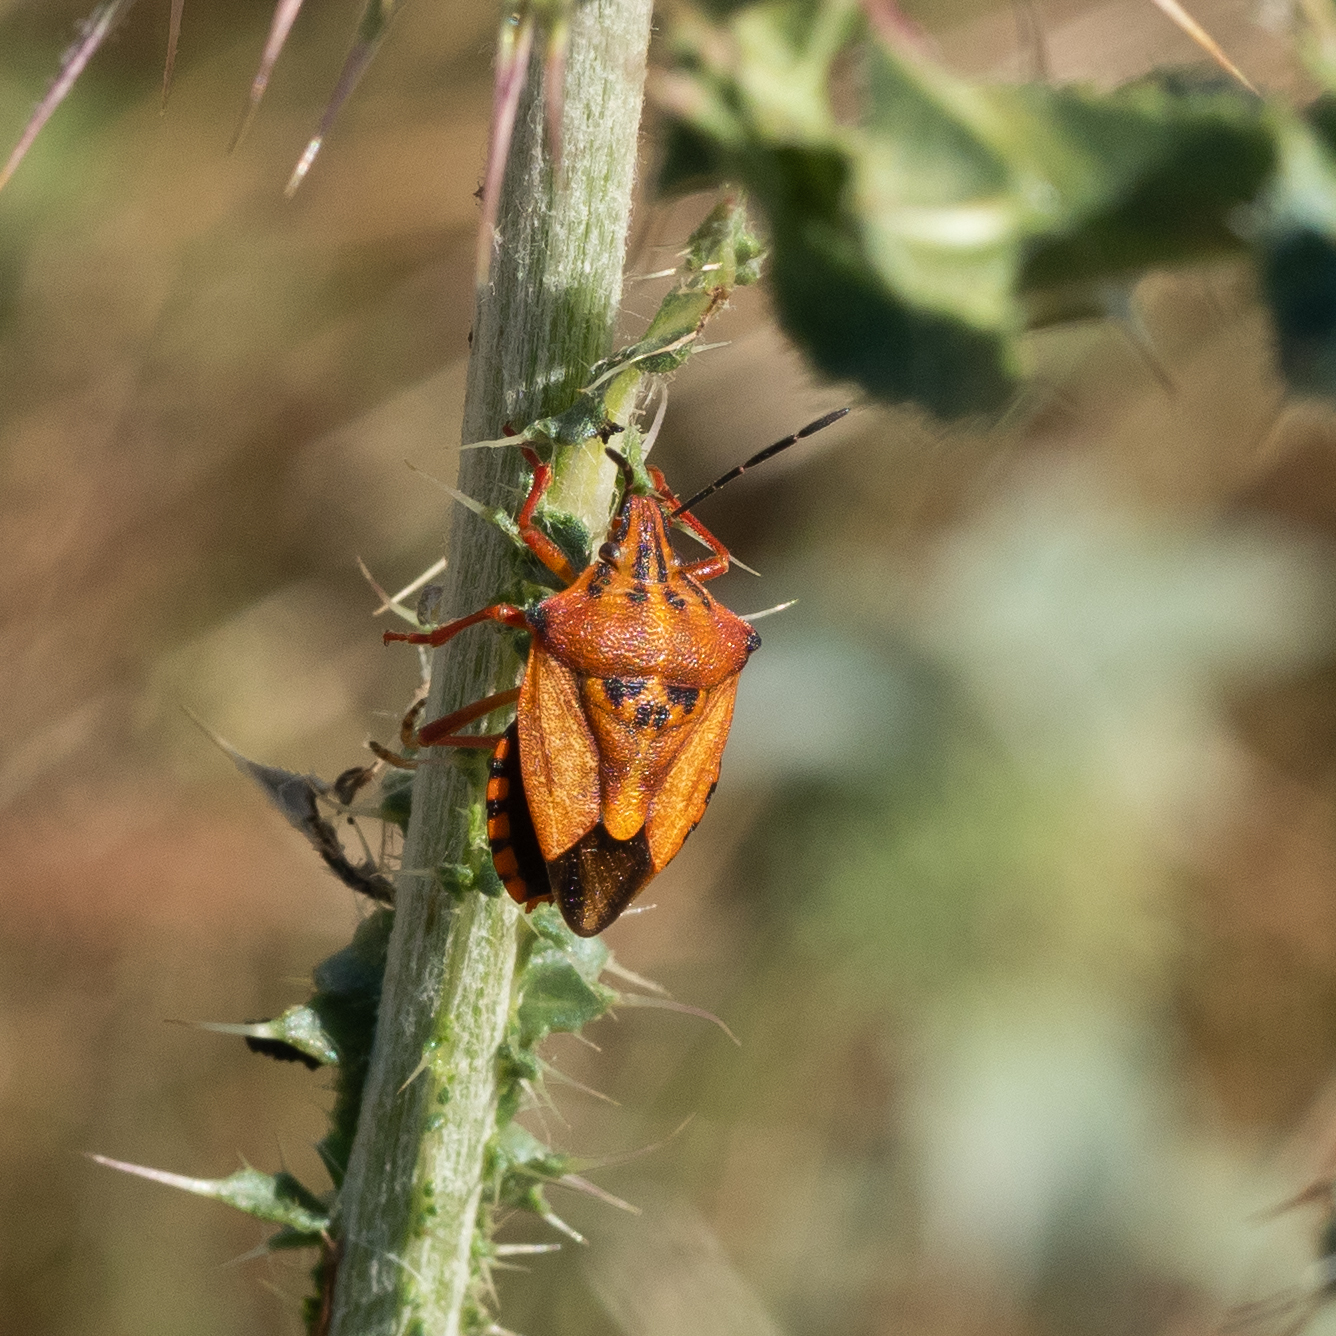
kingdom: Animalia
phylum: Arthropoda
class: Insecta
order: Hemiptera
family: Pentatomidae
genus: Carpocoris
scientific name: Carpocoris mediterraneus
